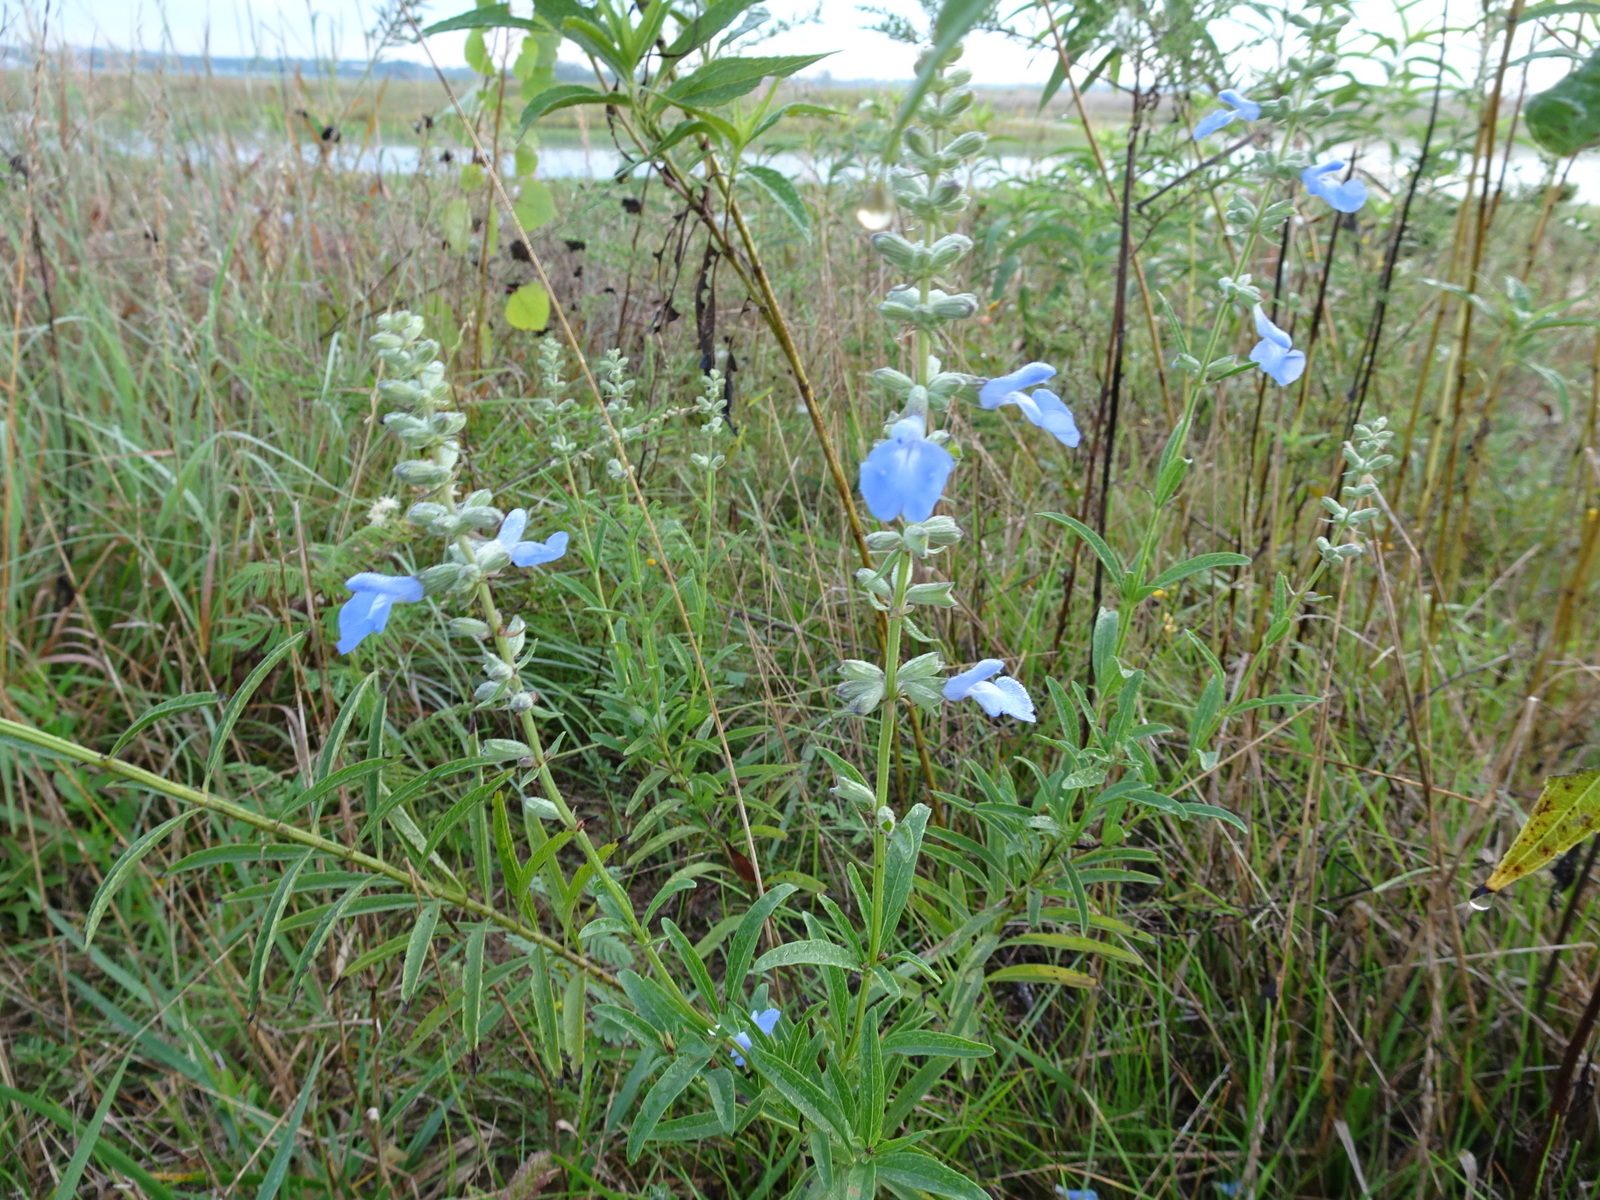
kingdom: Plantae
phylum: Tracheophyta
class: Magnoliopsida
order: Lamiales
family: Lamiaceae
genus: Salvia
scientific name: Salvia azurea
